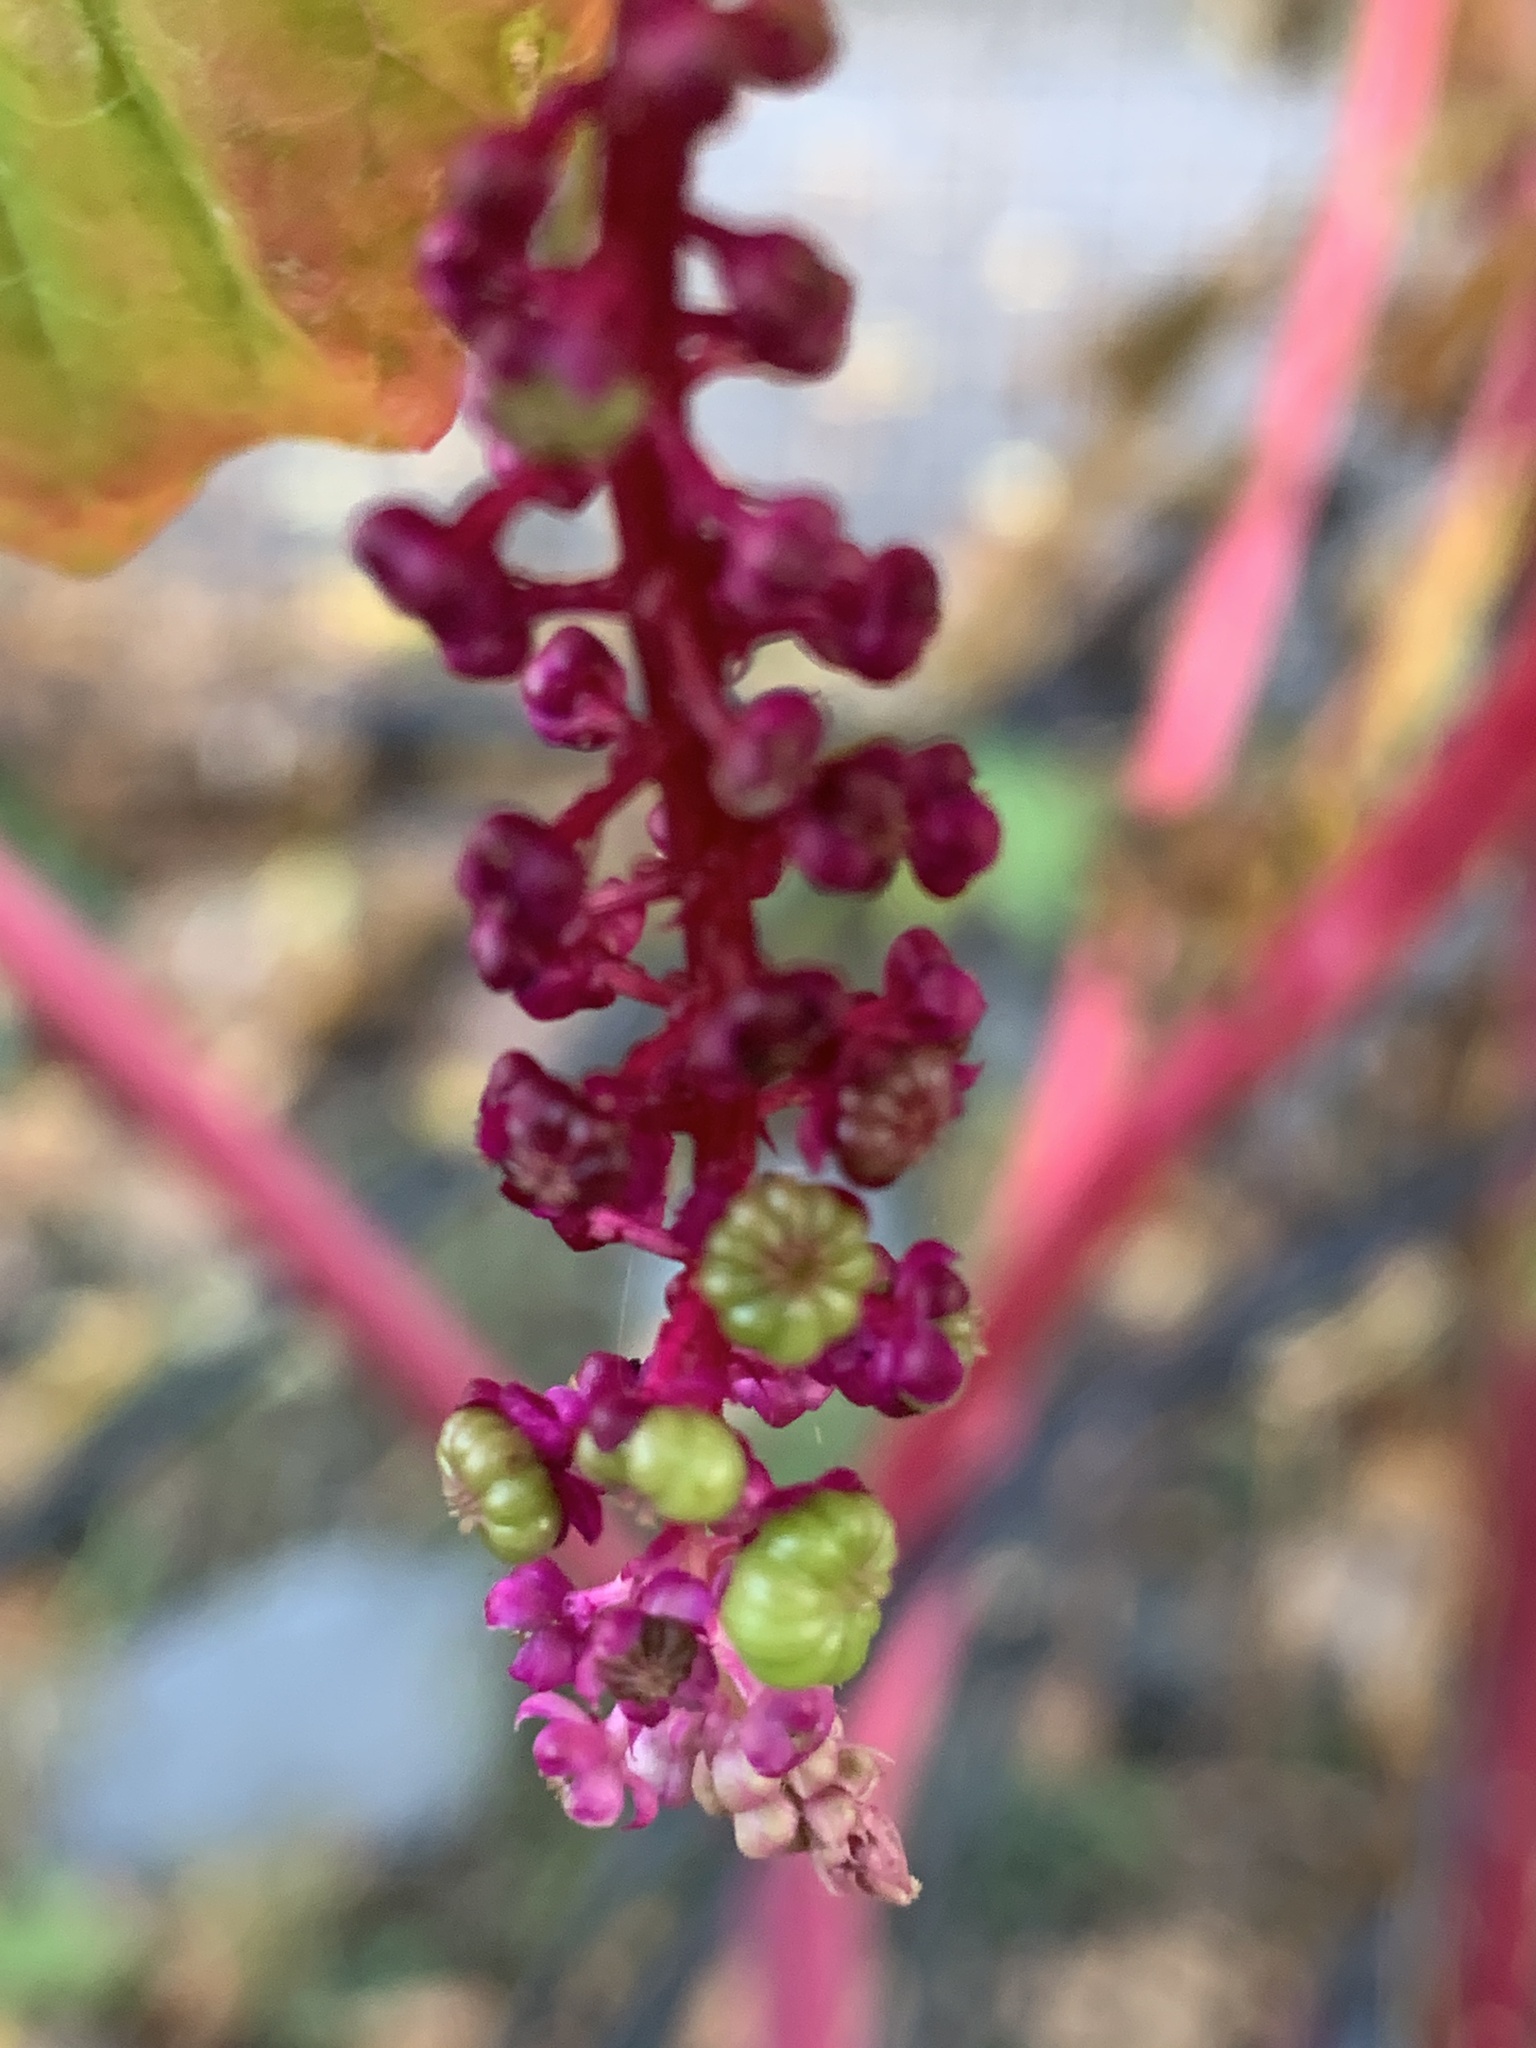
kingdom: Plantae
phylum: Tracheophyta
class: Magnoliopsida
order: Caryophyllales
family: Phytolaccaceae
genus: Phytolacca
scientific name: Phytolacca americana
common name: American pokeweed
